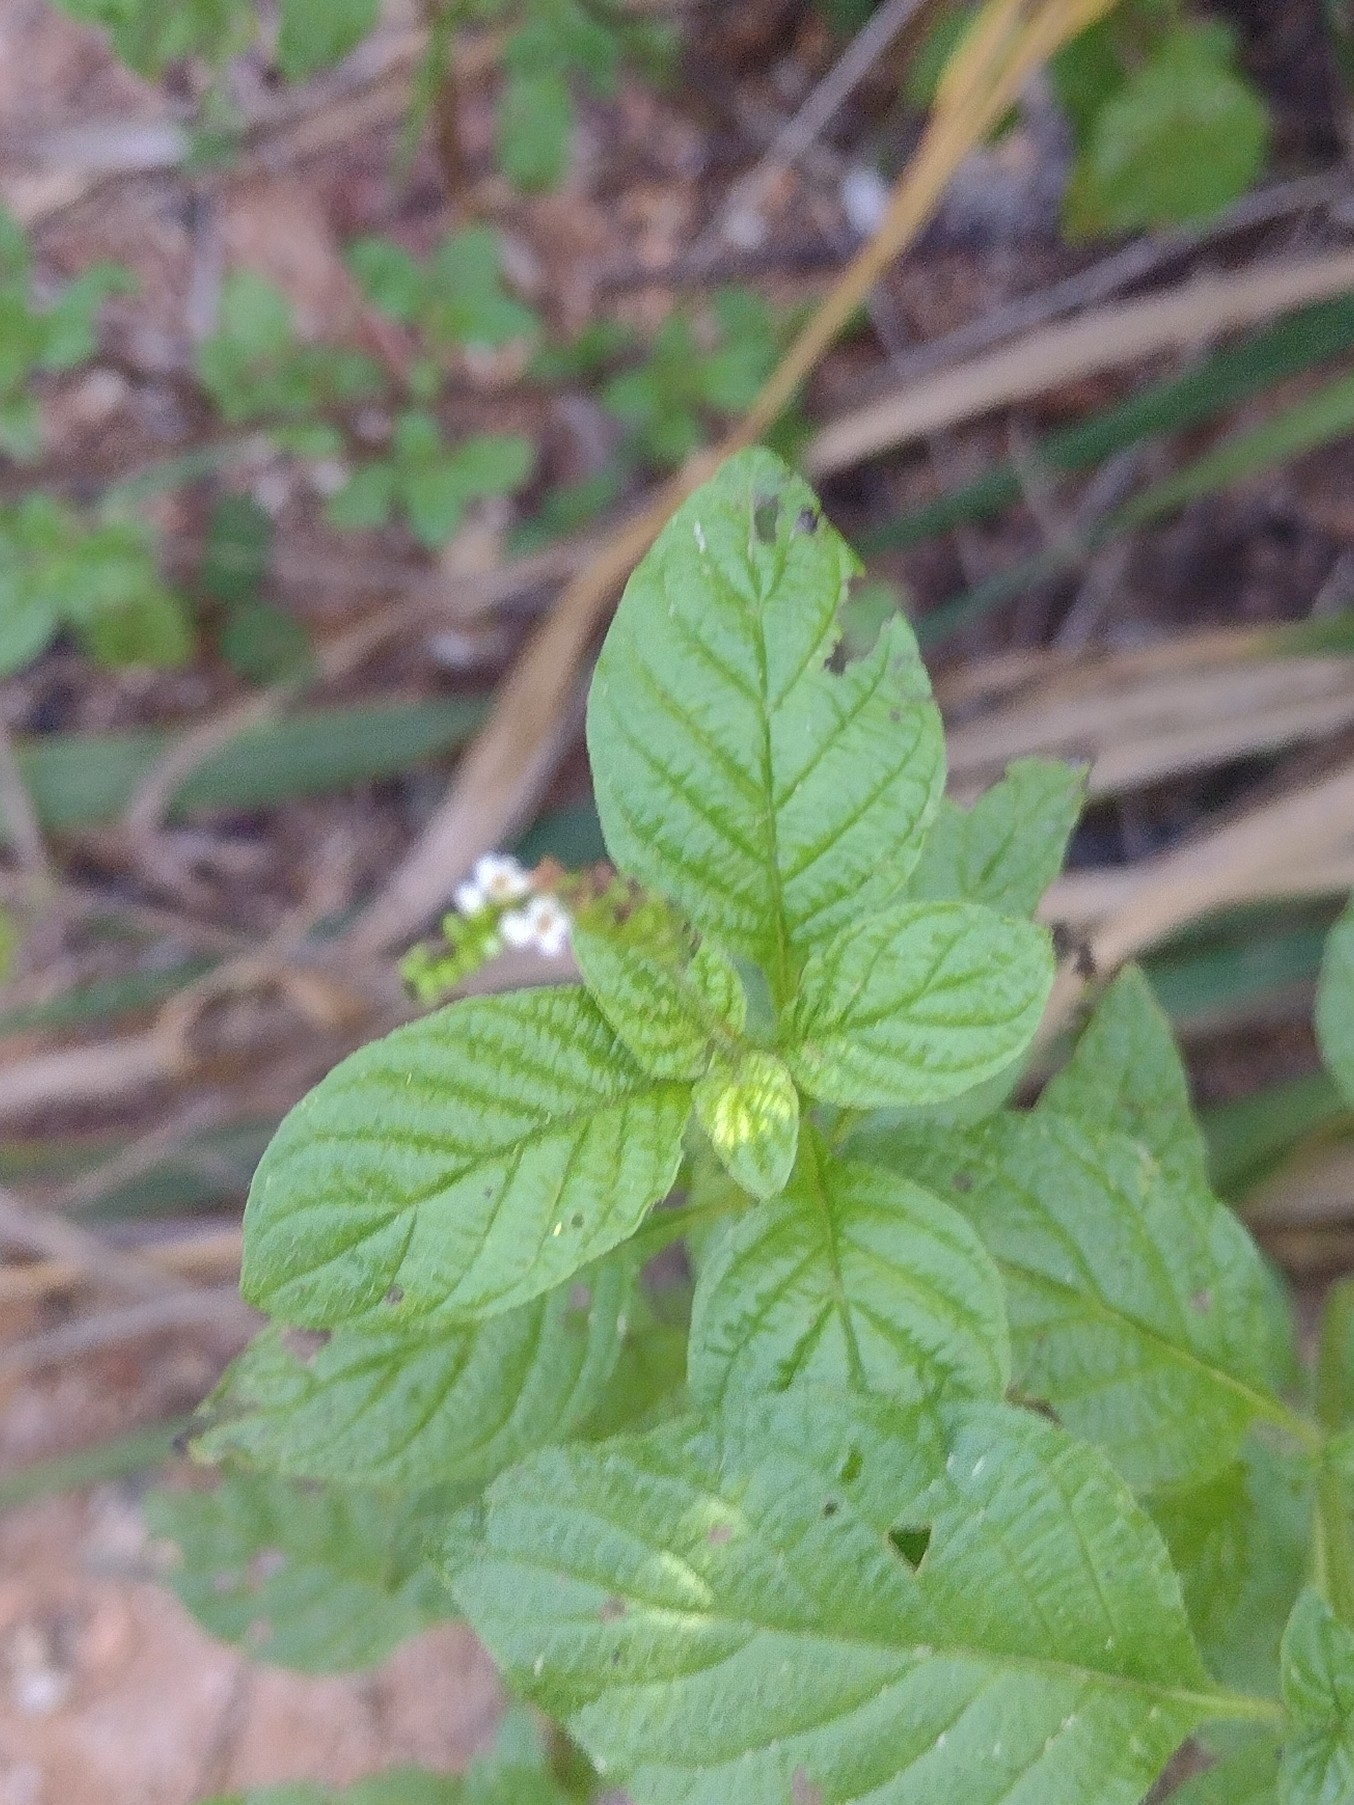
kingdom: Plantae
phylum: Tracheophyta
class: Magnoliopsida
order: Boraginales
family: Heliotropiaceae
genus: Heliotropium
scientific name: Heliotropium angiospermum
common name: Eye bright
